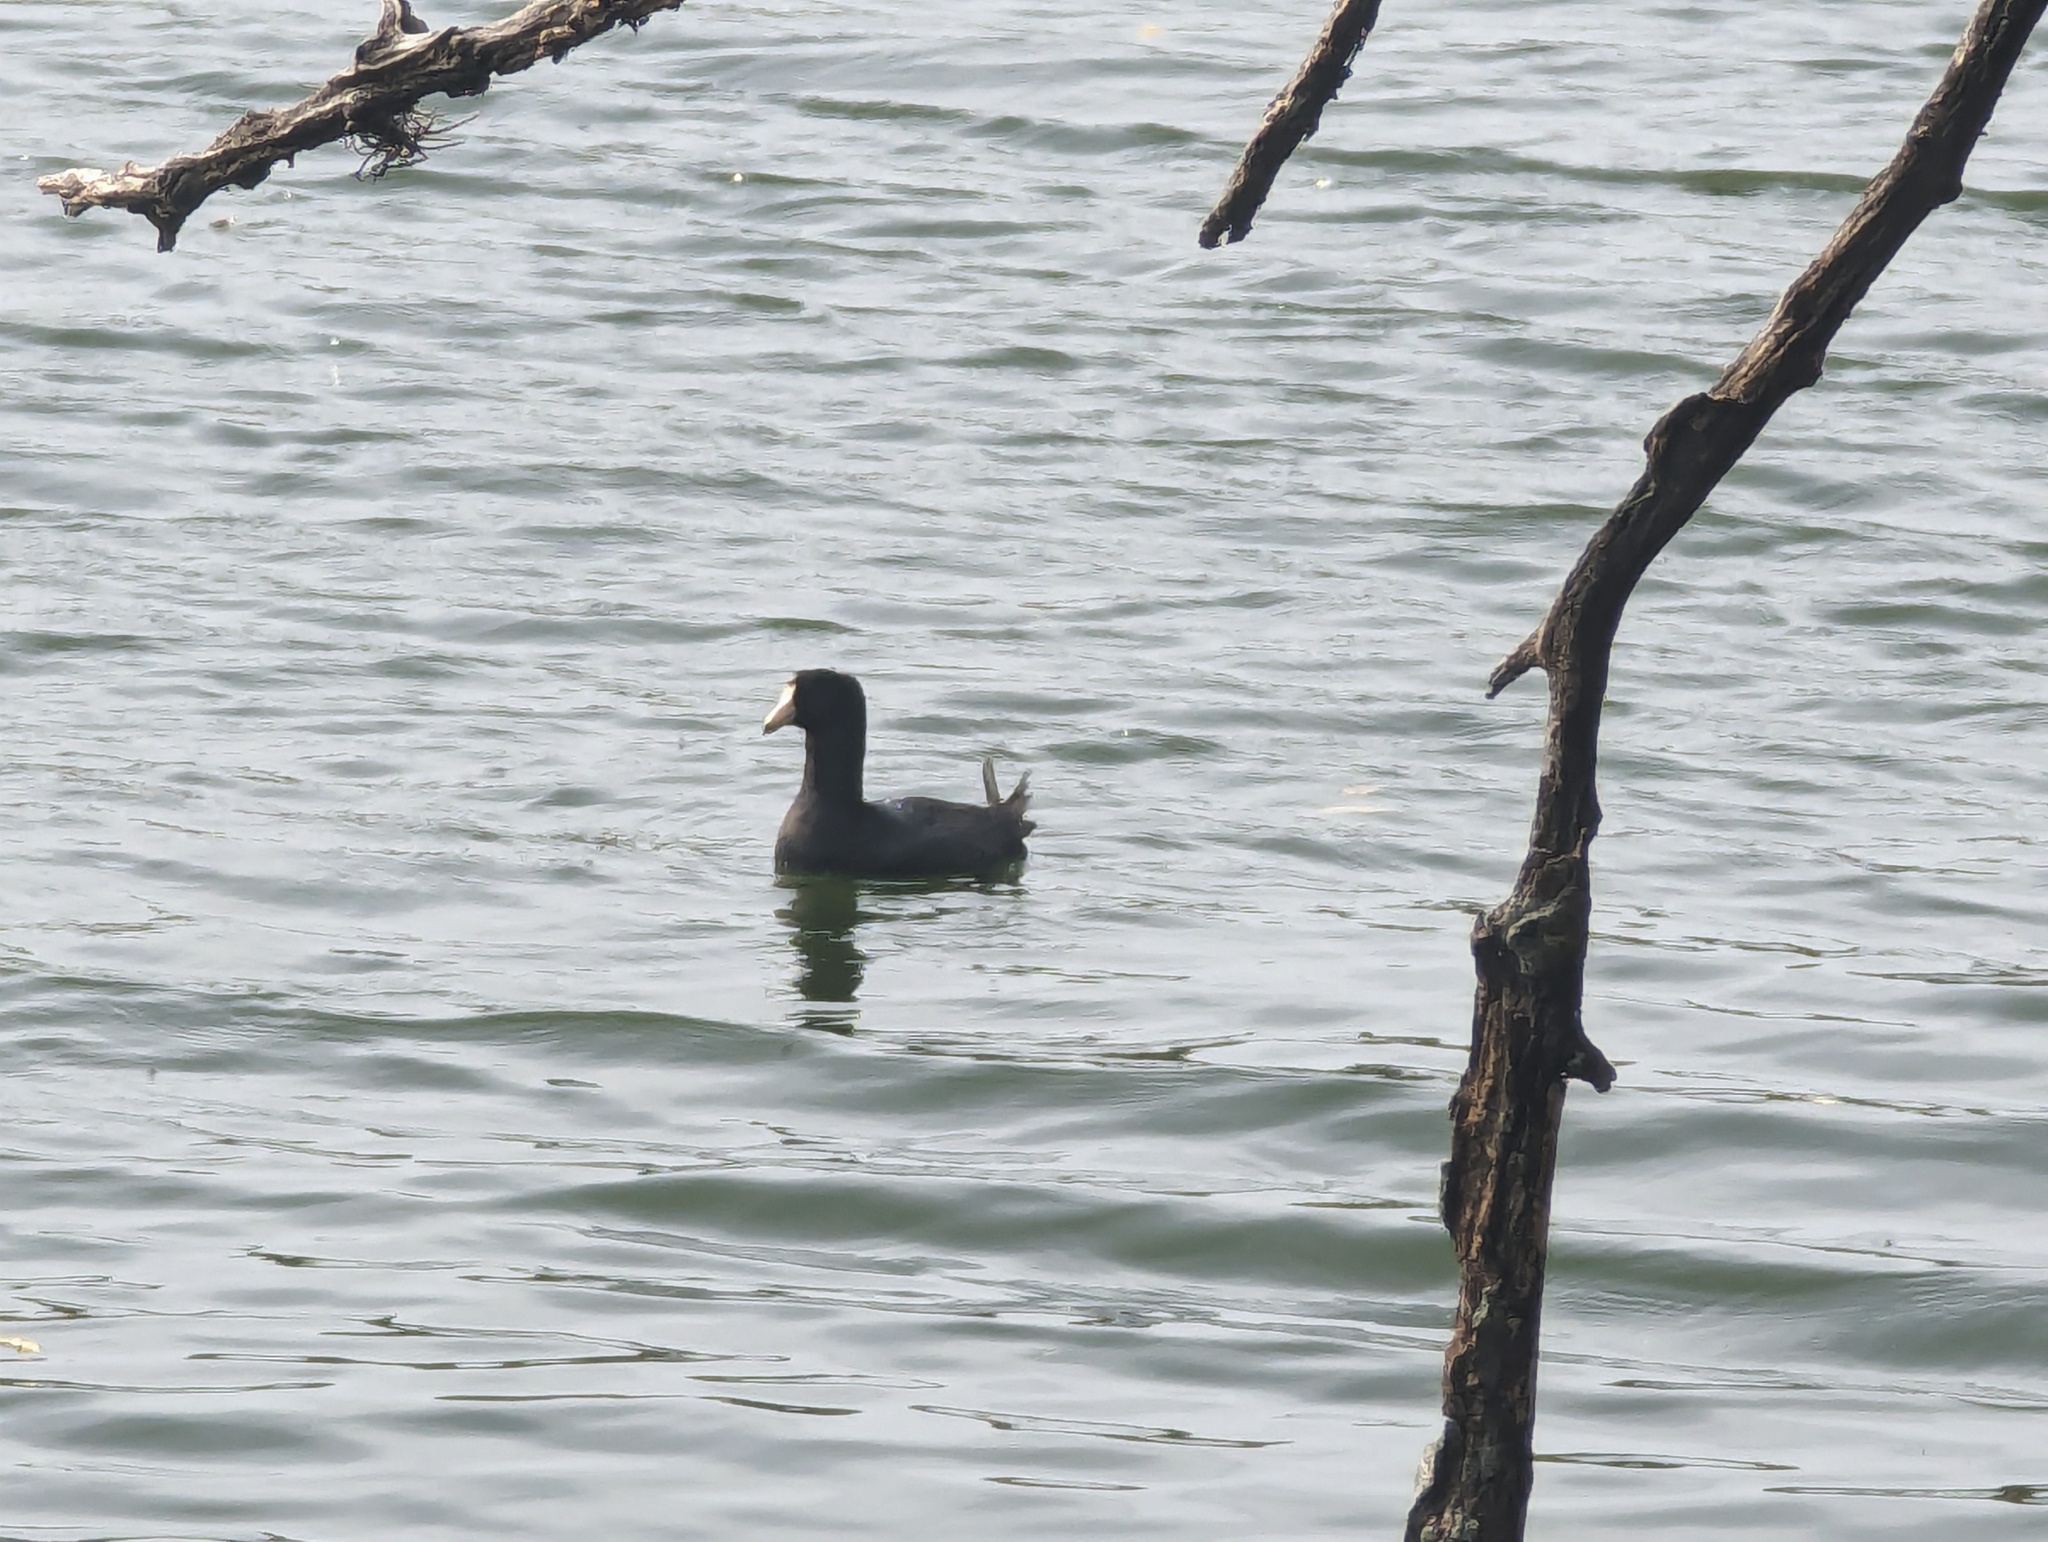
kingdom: Animalia
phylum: Chordata
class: Aves
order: Gruiformes
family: Rallidae
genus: Fulica
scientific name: Fulica americana
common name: American coot
